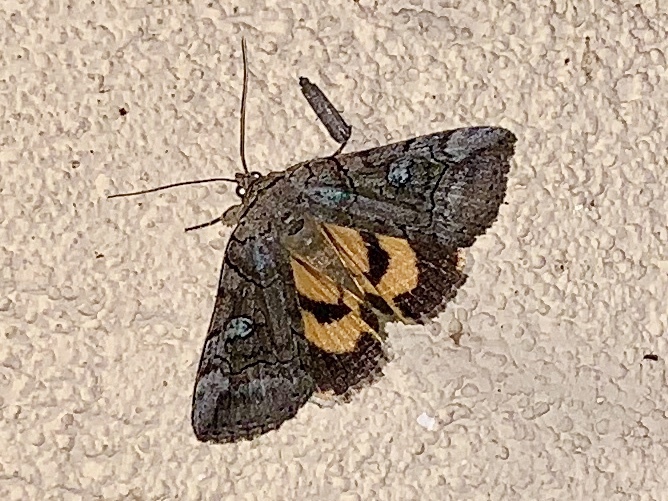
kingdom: Animalia
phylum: Arthropoda
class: Insecta
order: Lepidoptera
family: Erebidae
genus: Catocala
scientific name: Catocala similis
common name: Similar underwing
